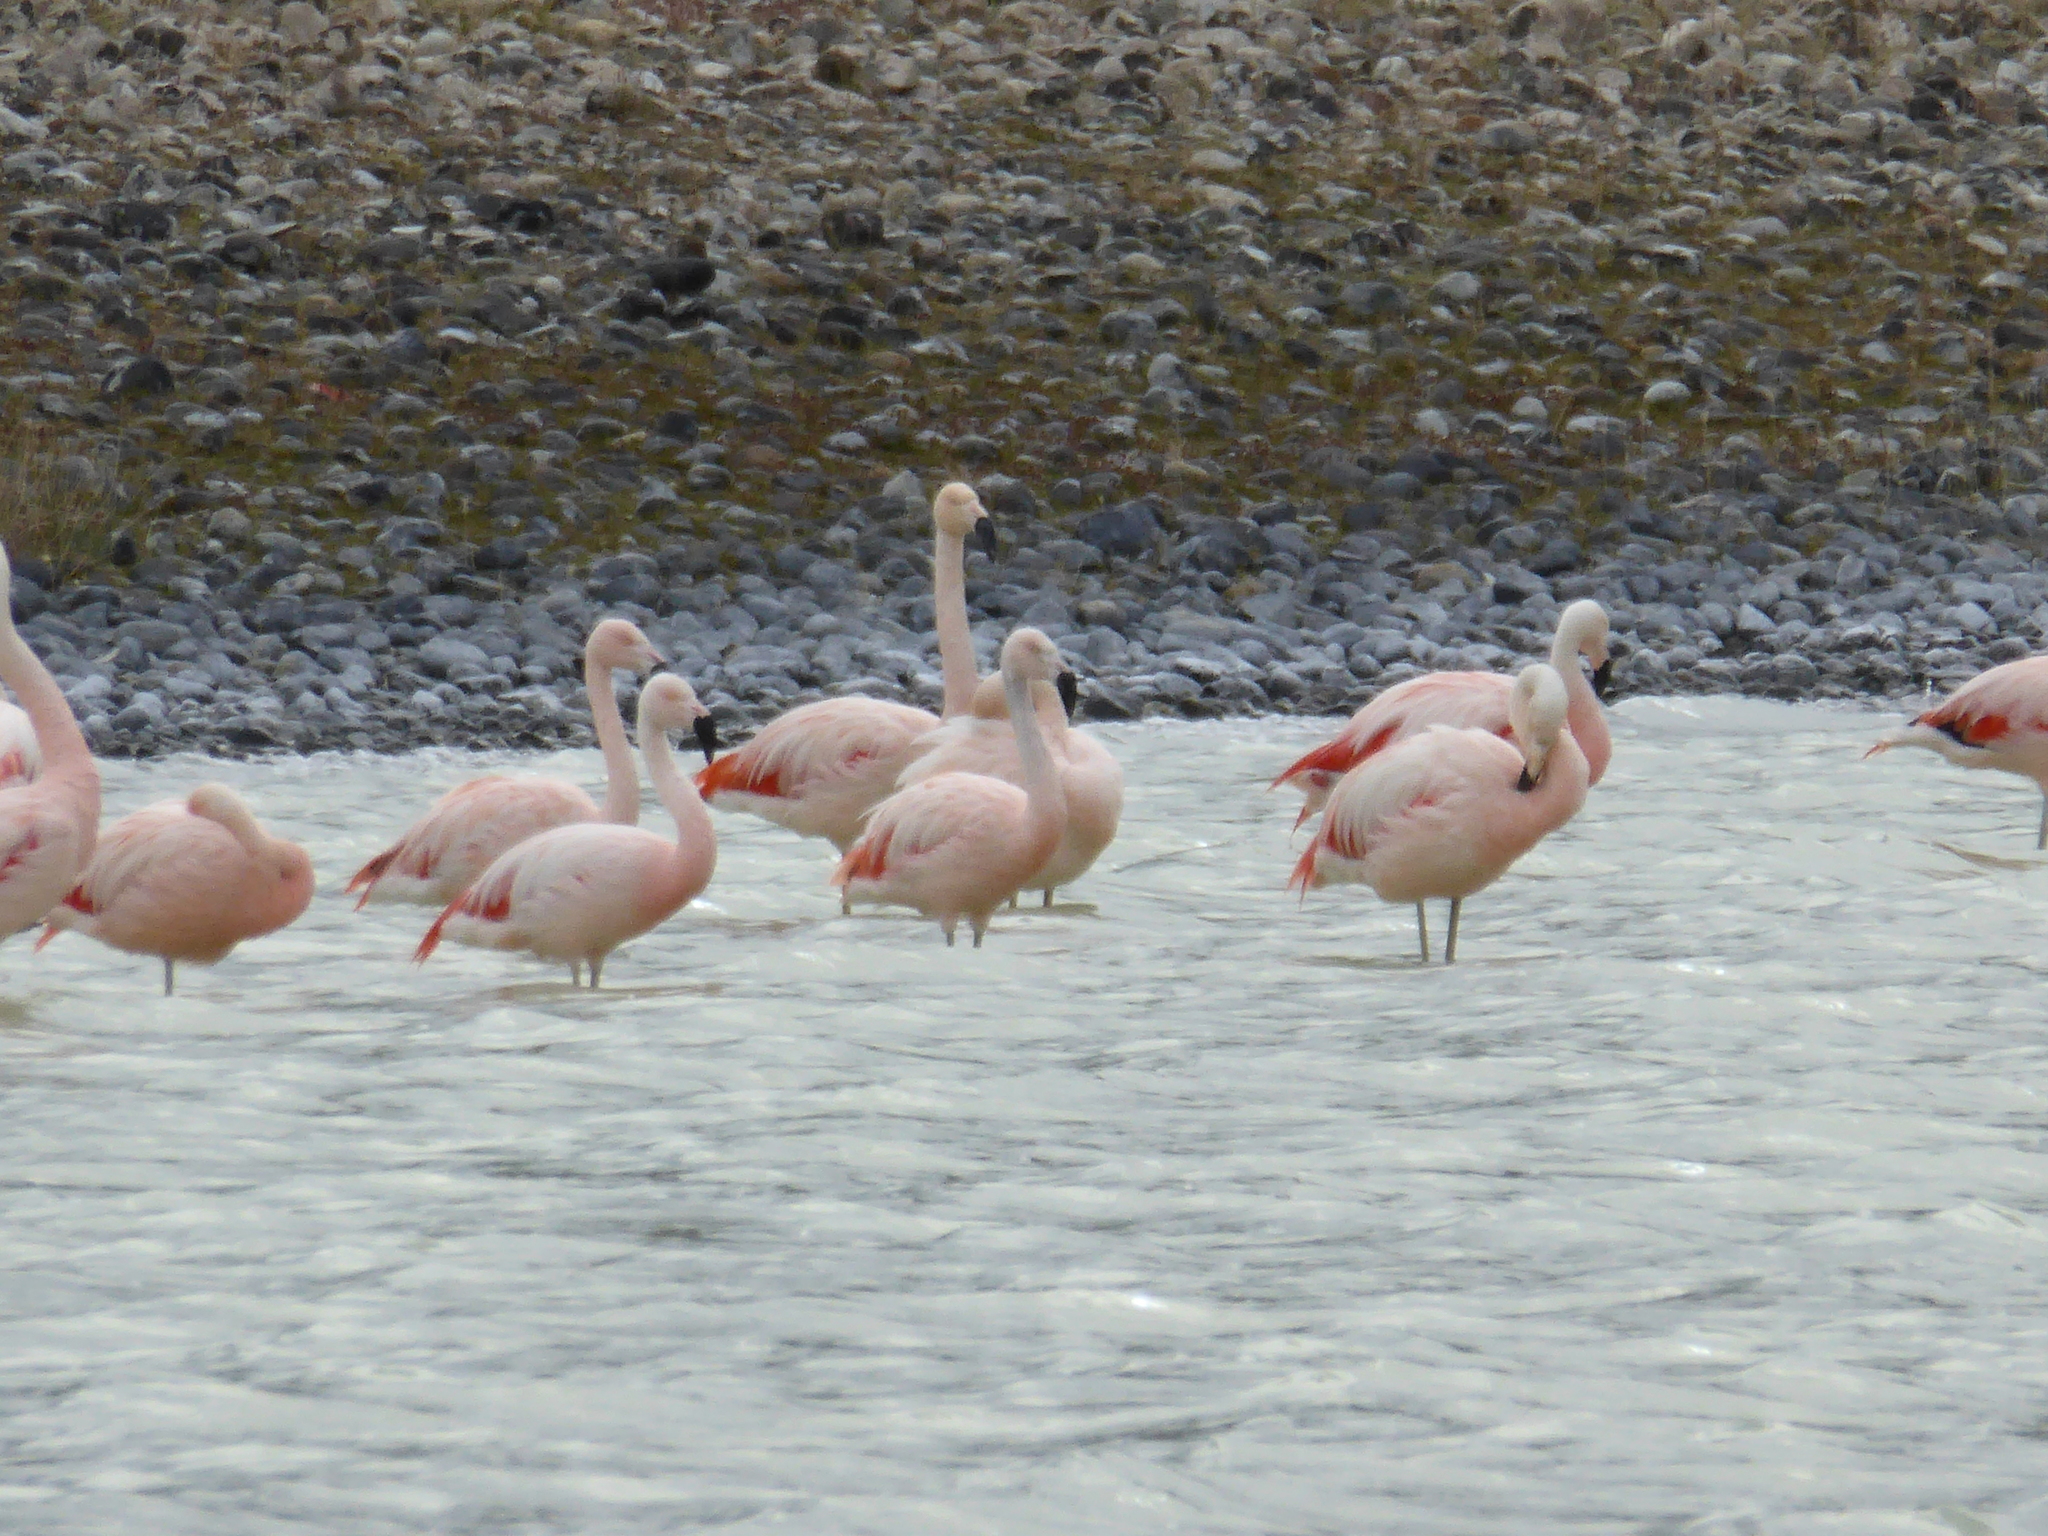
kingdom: Animalia
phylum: Chordata
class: Aves
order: Phoenicopteriformes
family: Phoenicopteridae
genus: Phoenicopterus
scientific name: Phoenicopterus chilensis
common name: Chilean flamingo
